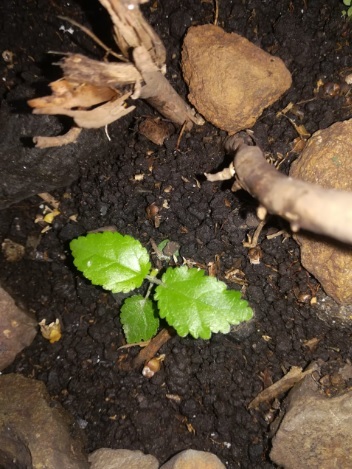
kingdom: Plantae
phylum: Tracheophyta
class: Magnoliopsida
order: Lamiales
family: Bignoniaceae
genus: Handroanthus
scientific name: Handroanthus chrysanthus
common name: Trumpet trees
